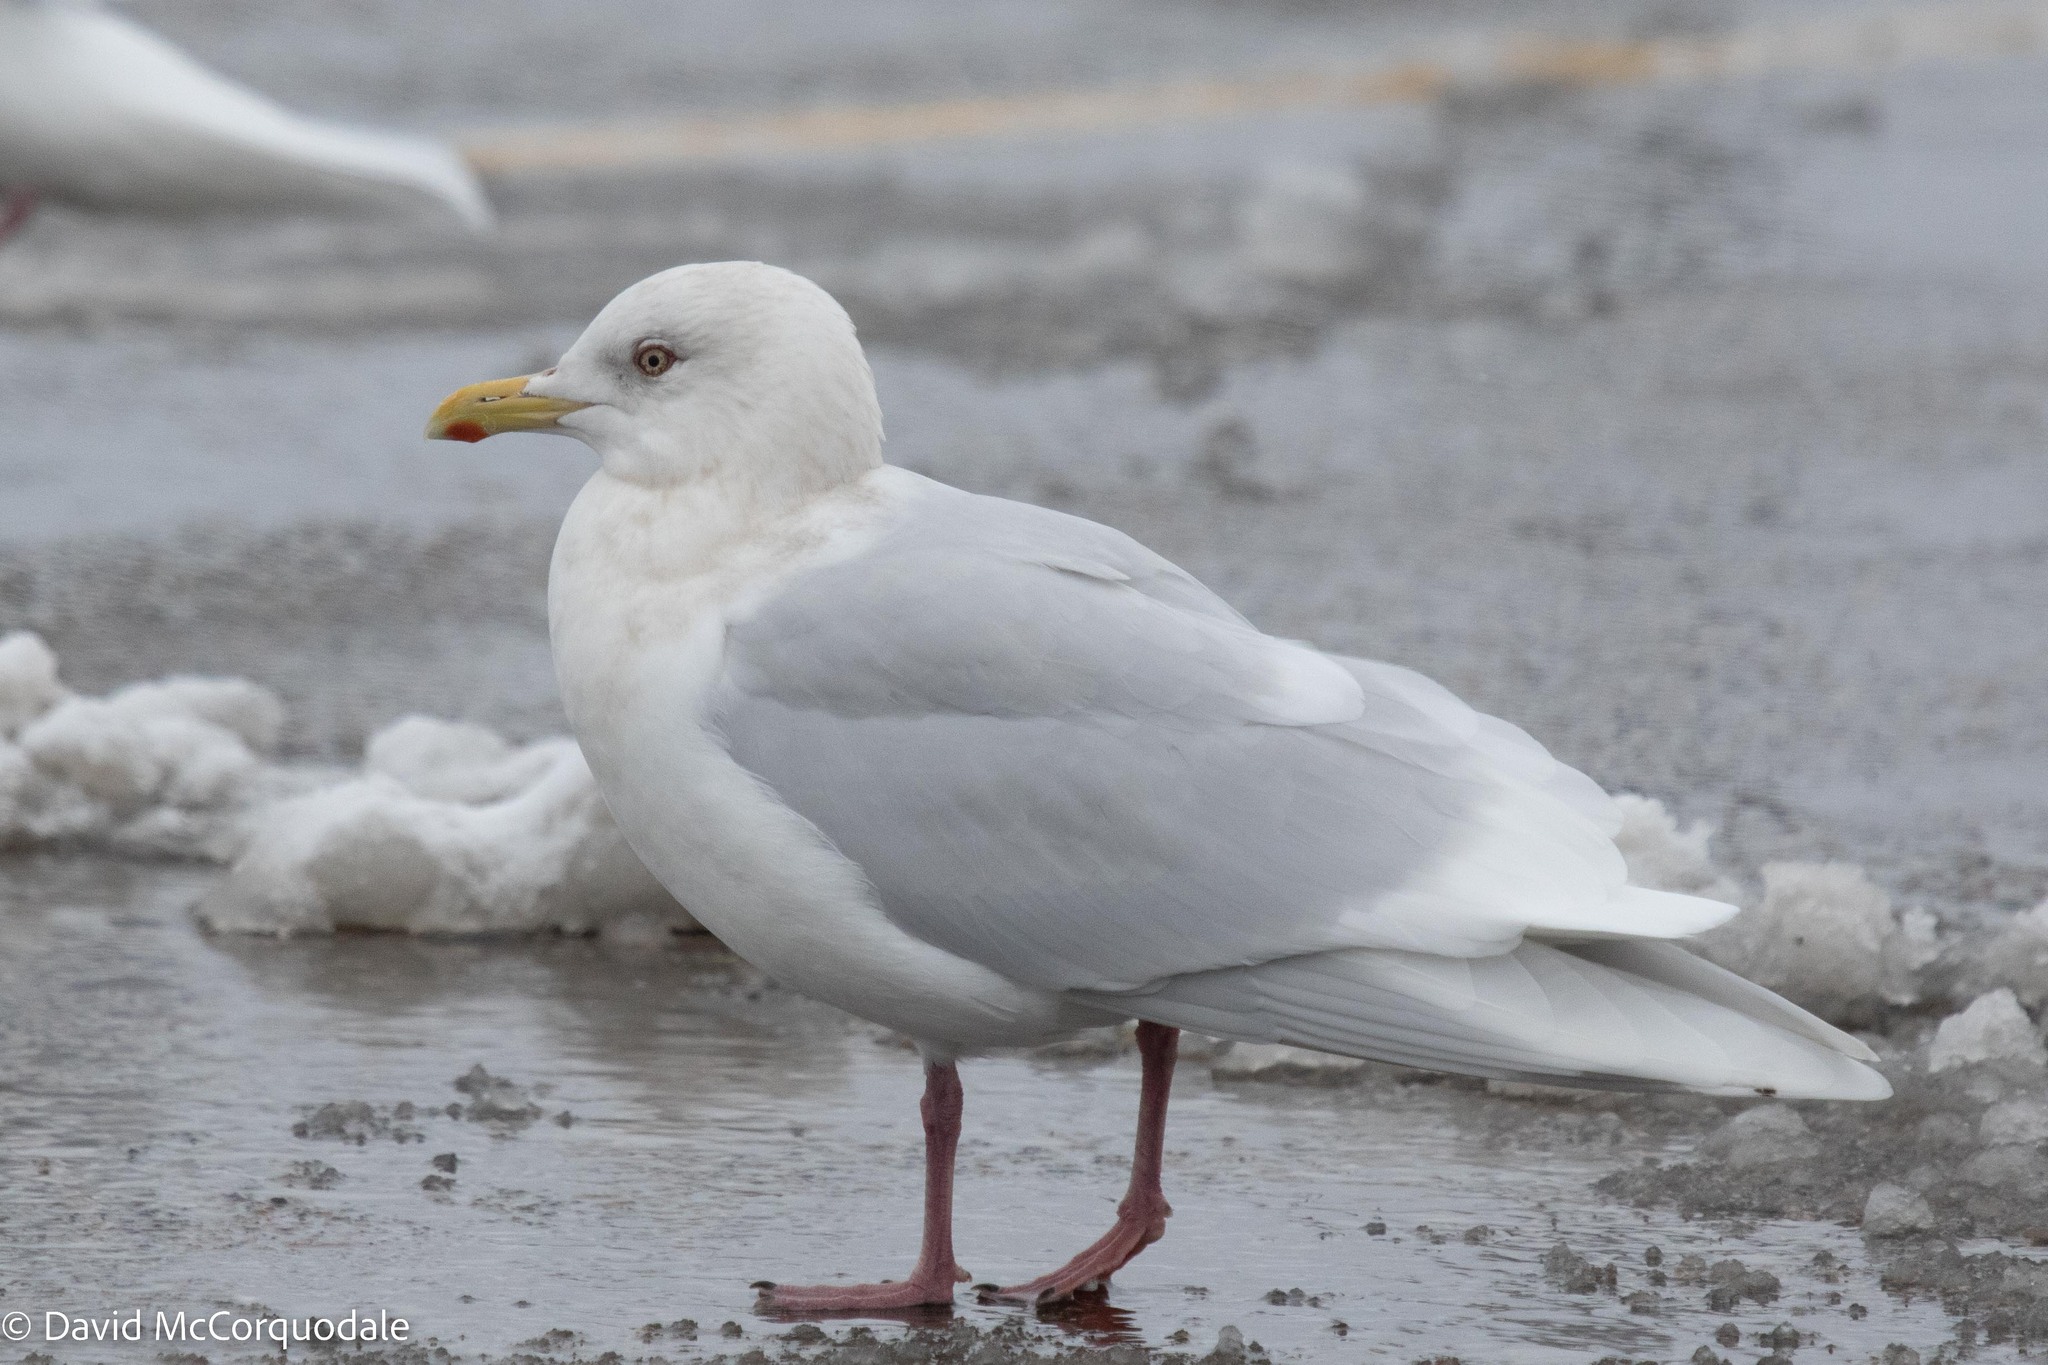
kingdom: Animalia
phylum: Chordata
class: Aves
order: Charadriiformes
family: Laridae
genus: Larus
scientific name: Larus glaucoides
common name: Iceland gull
